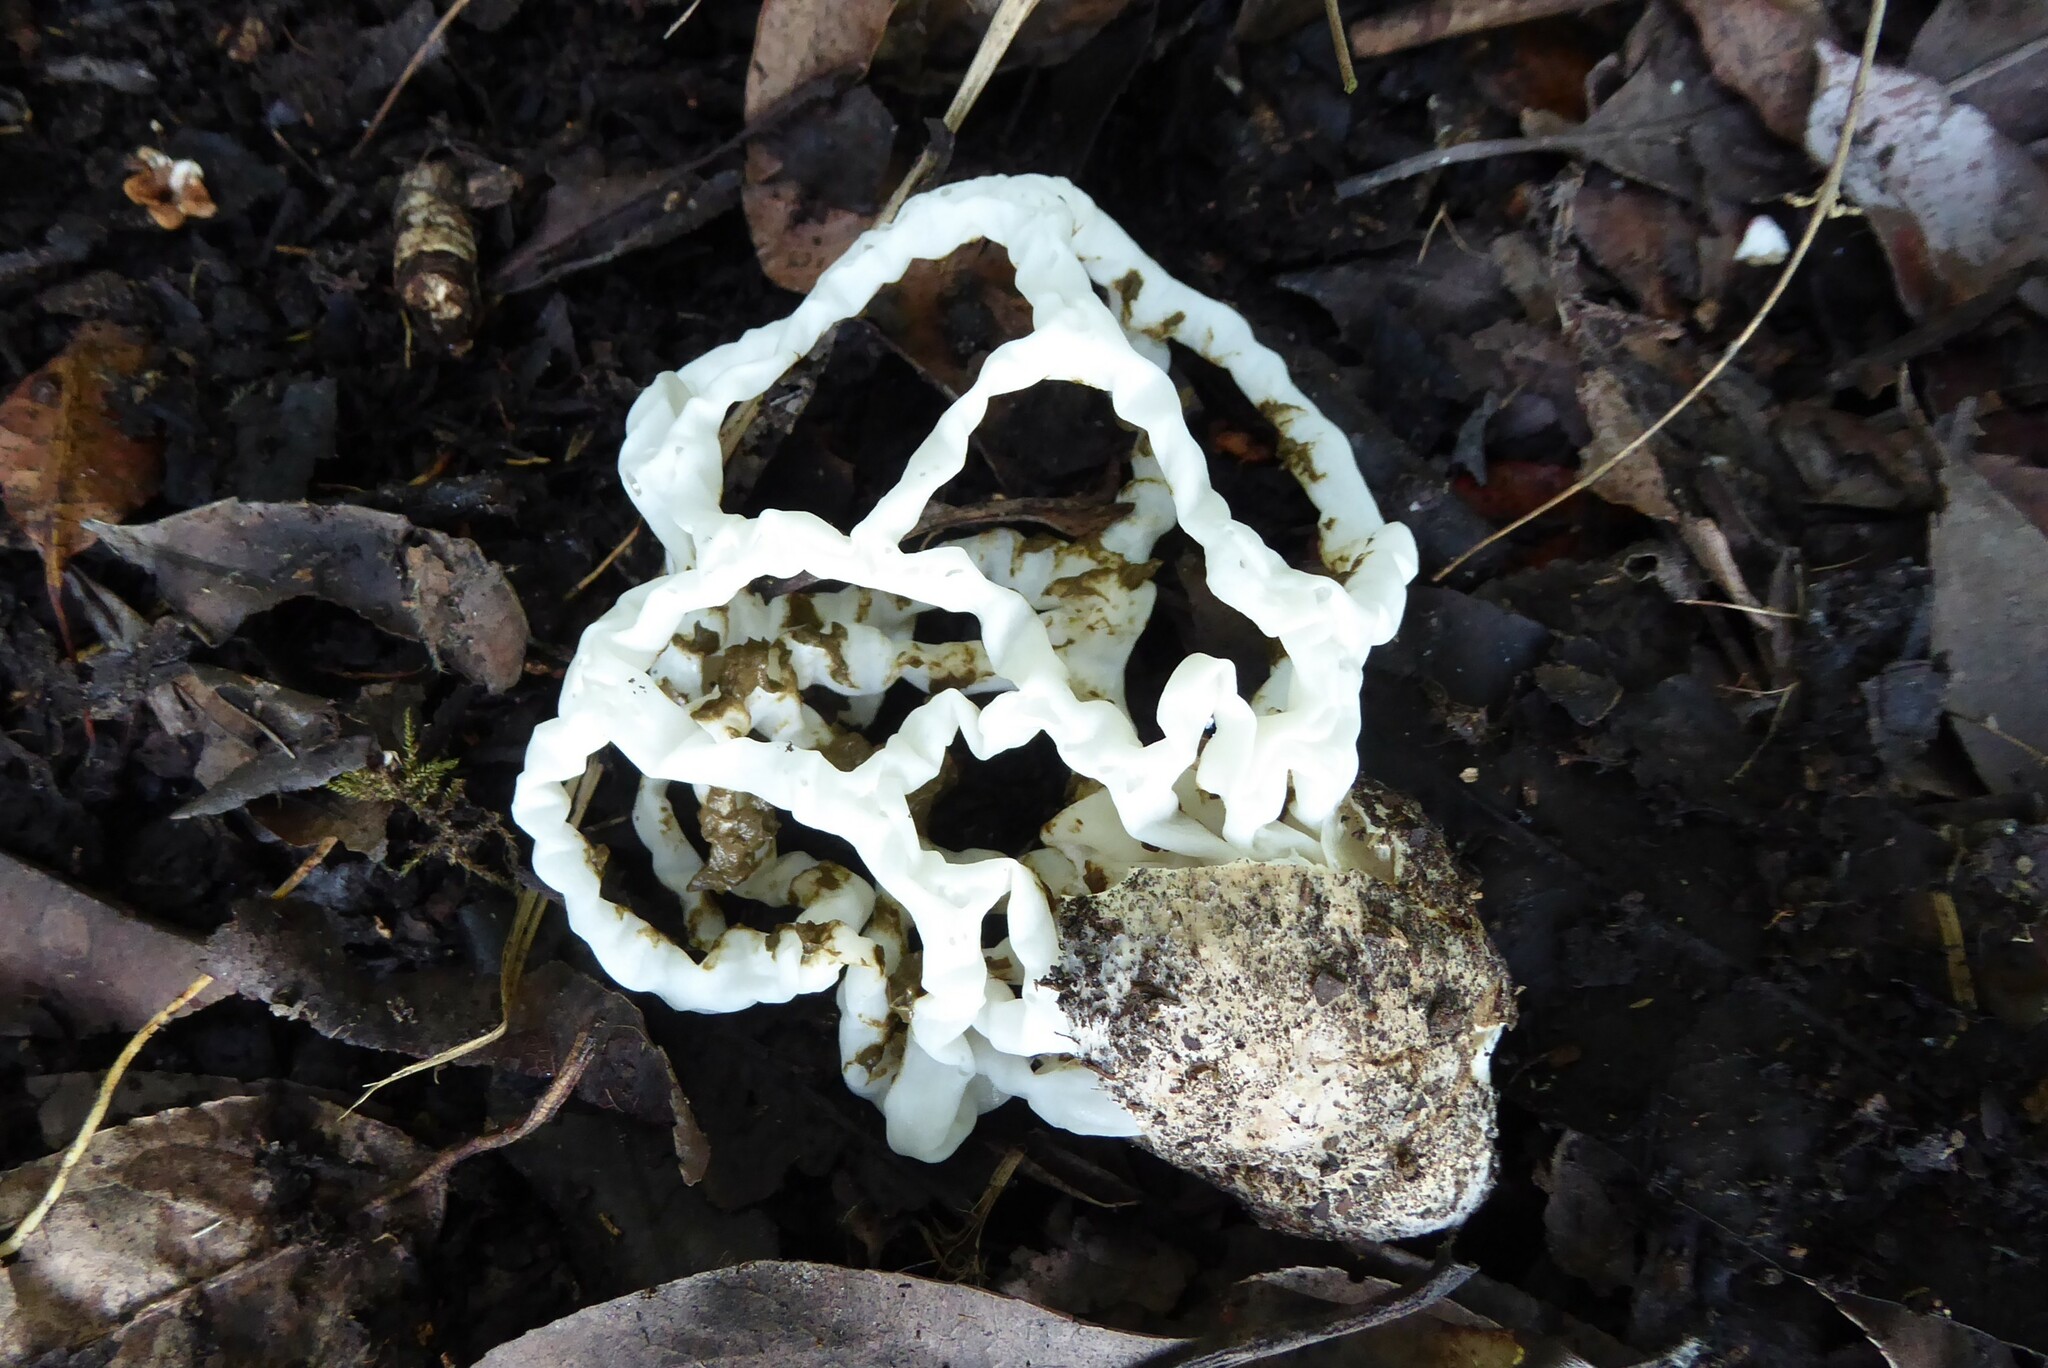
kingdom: Fungi
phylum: Basidiomycota
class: Agaricomycetes
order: Phallales
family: Phallaceae
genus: Ileodictyon
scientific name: Ileodictyon cibarium
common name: Basket fungus
